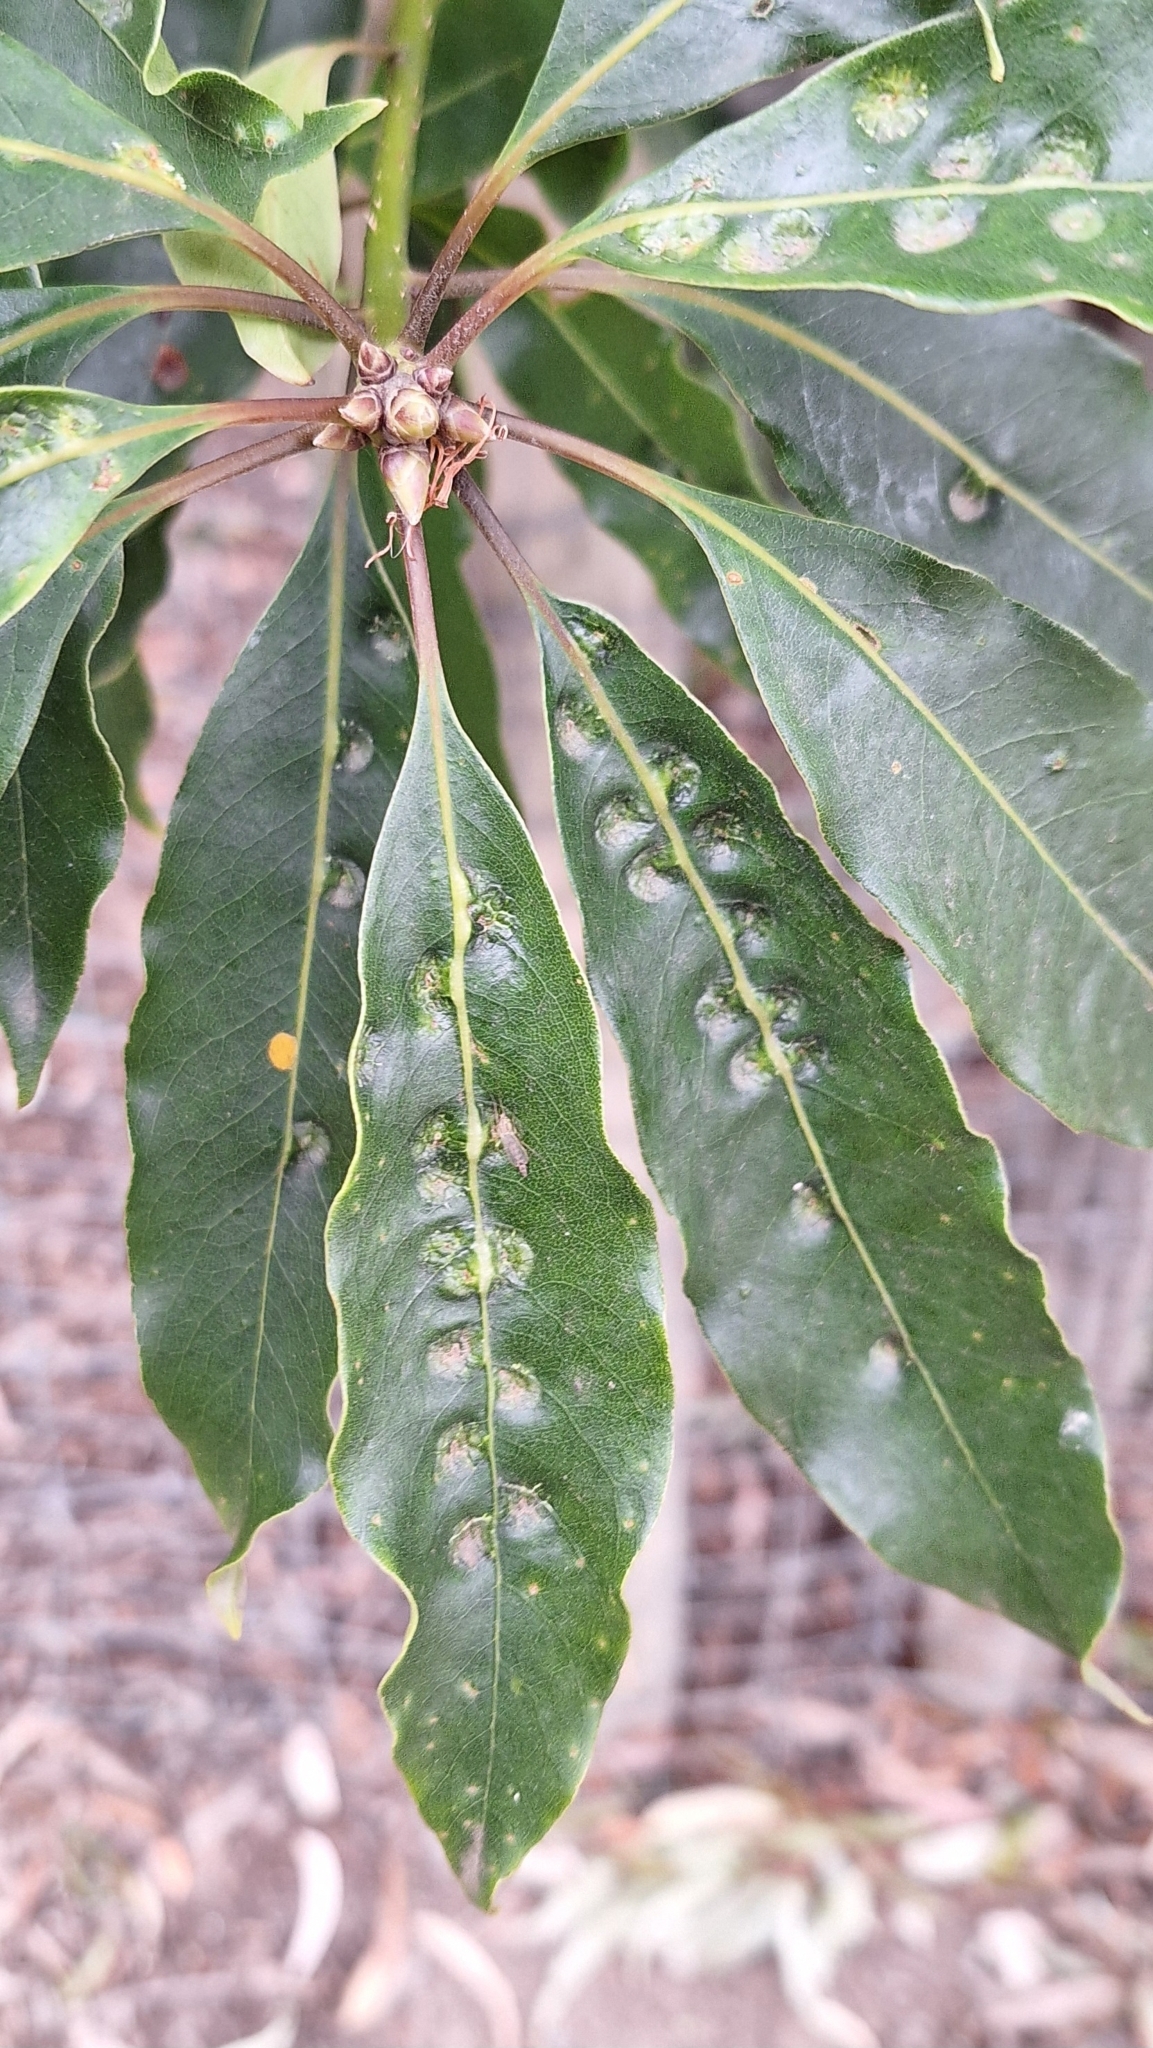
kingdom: Animalia
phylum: Arthropoda
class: Insecta
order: Diptera
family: Agromyzidae
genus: Phytoliriomyza
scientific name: Phytoliriomyza pittosporophylli
